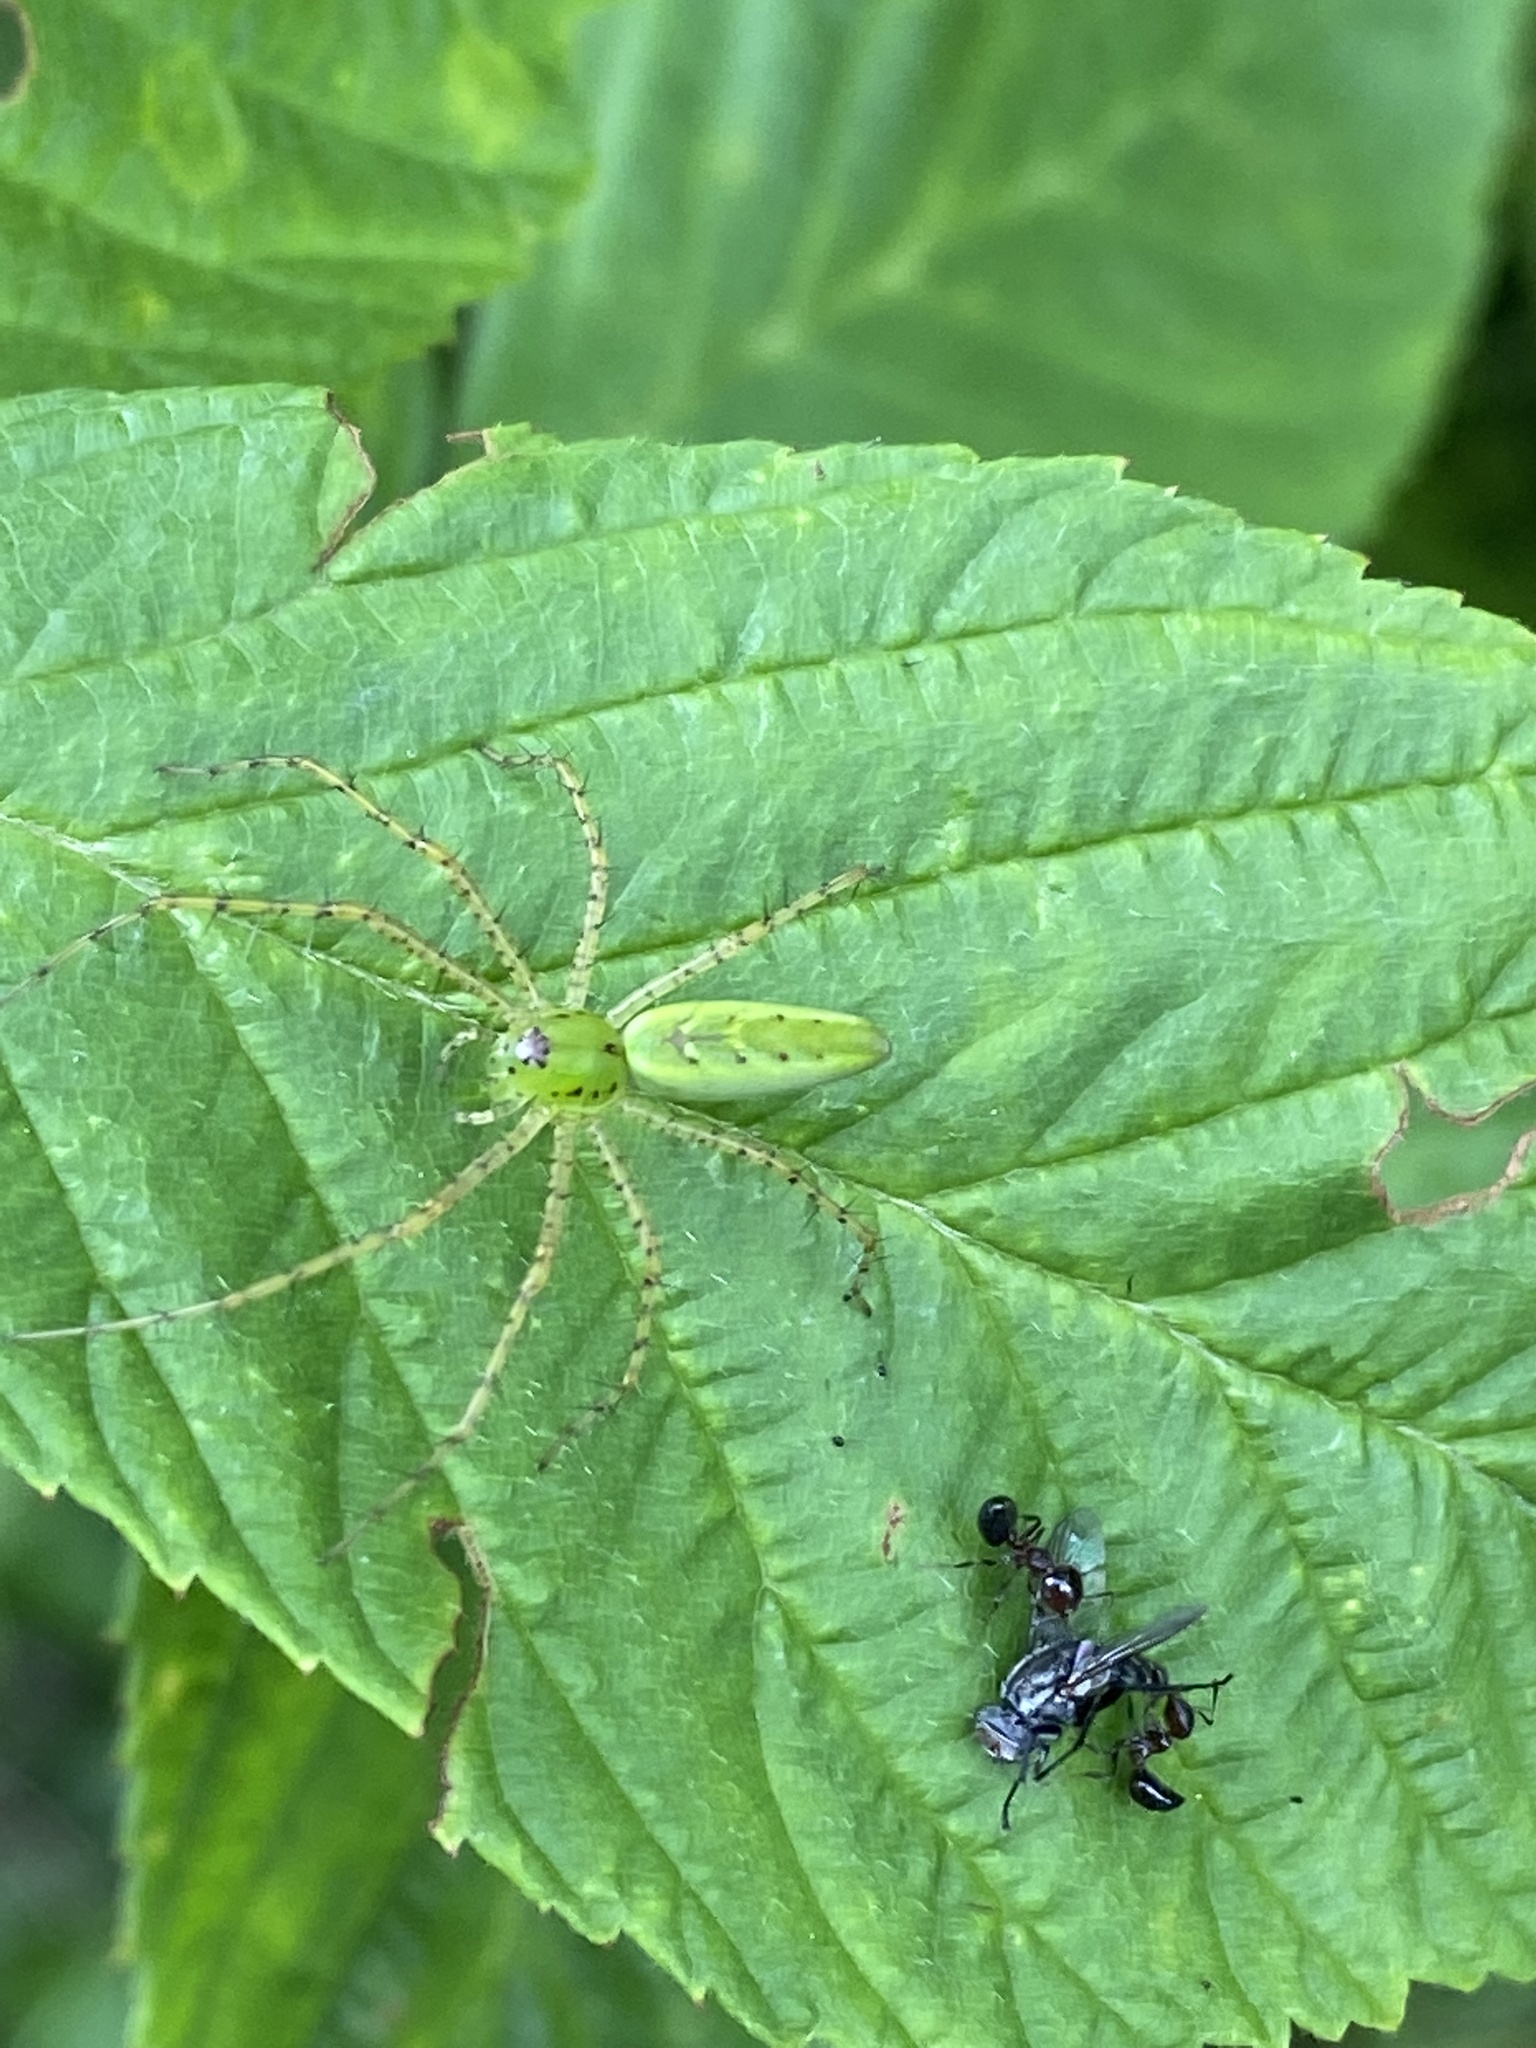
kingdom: Animalia
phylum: Arthropoda
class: Arachnida
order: Araneae
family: Oxyopidae
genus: Peucetia
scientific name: Peucetia viridans
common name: Lynx spiders
